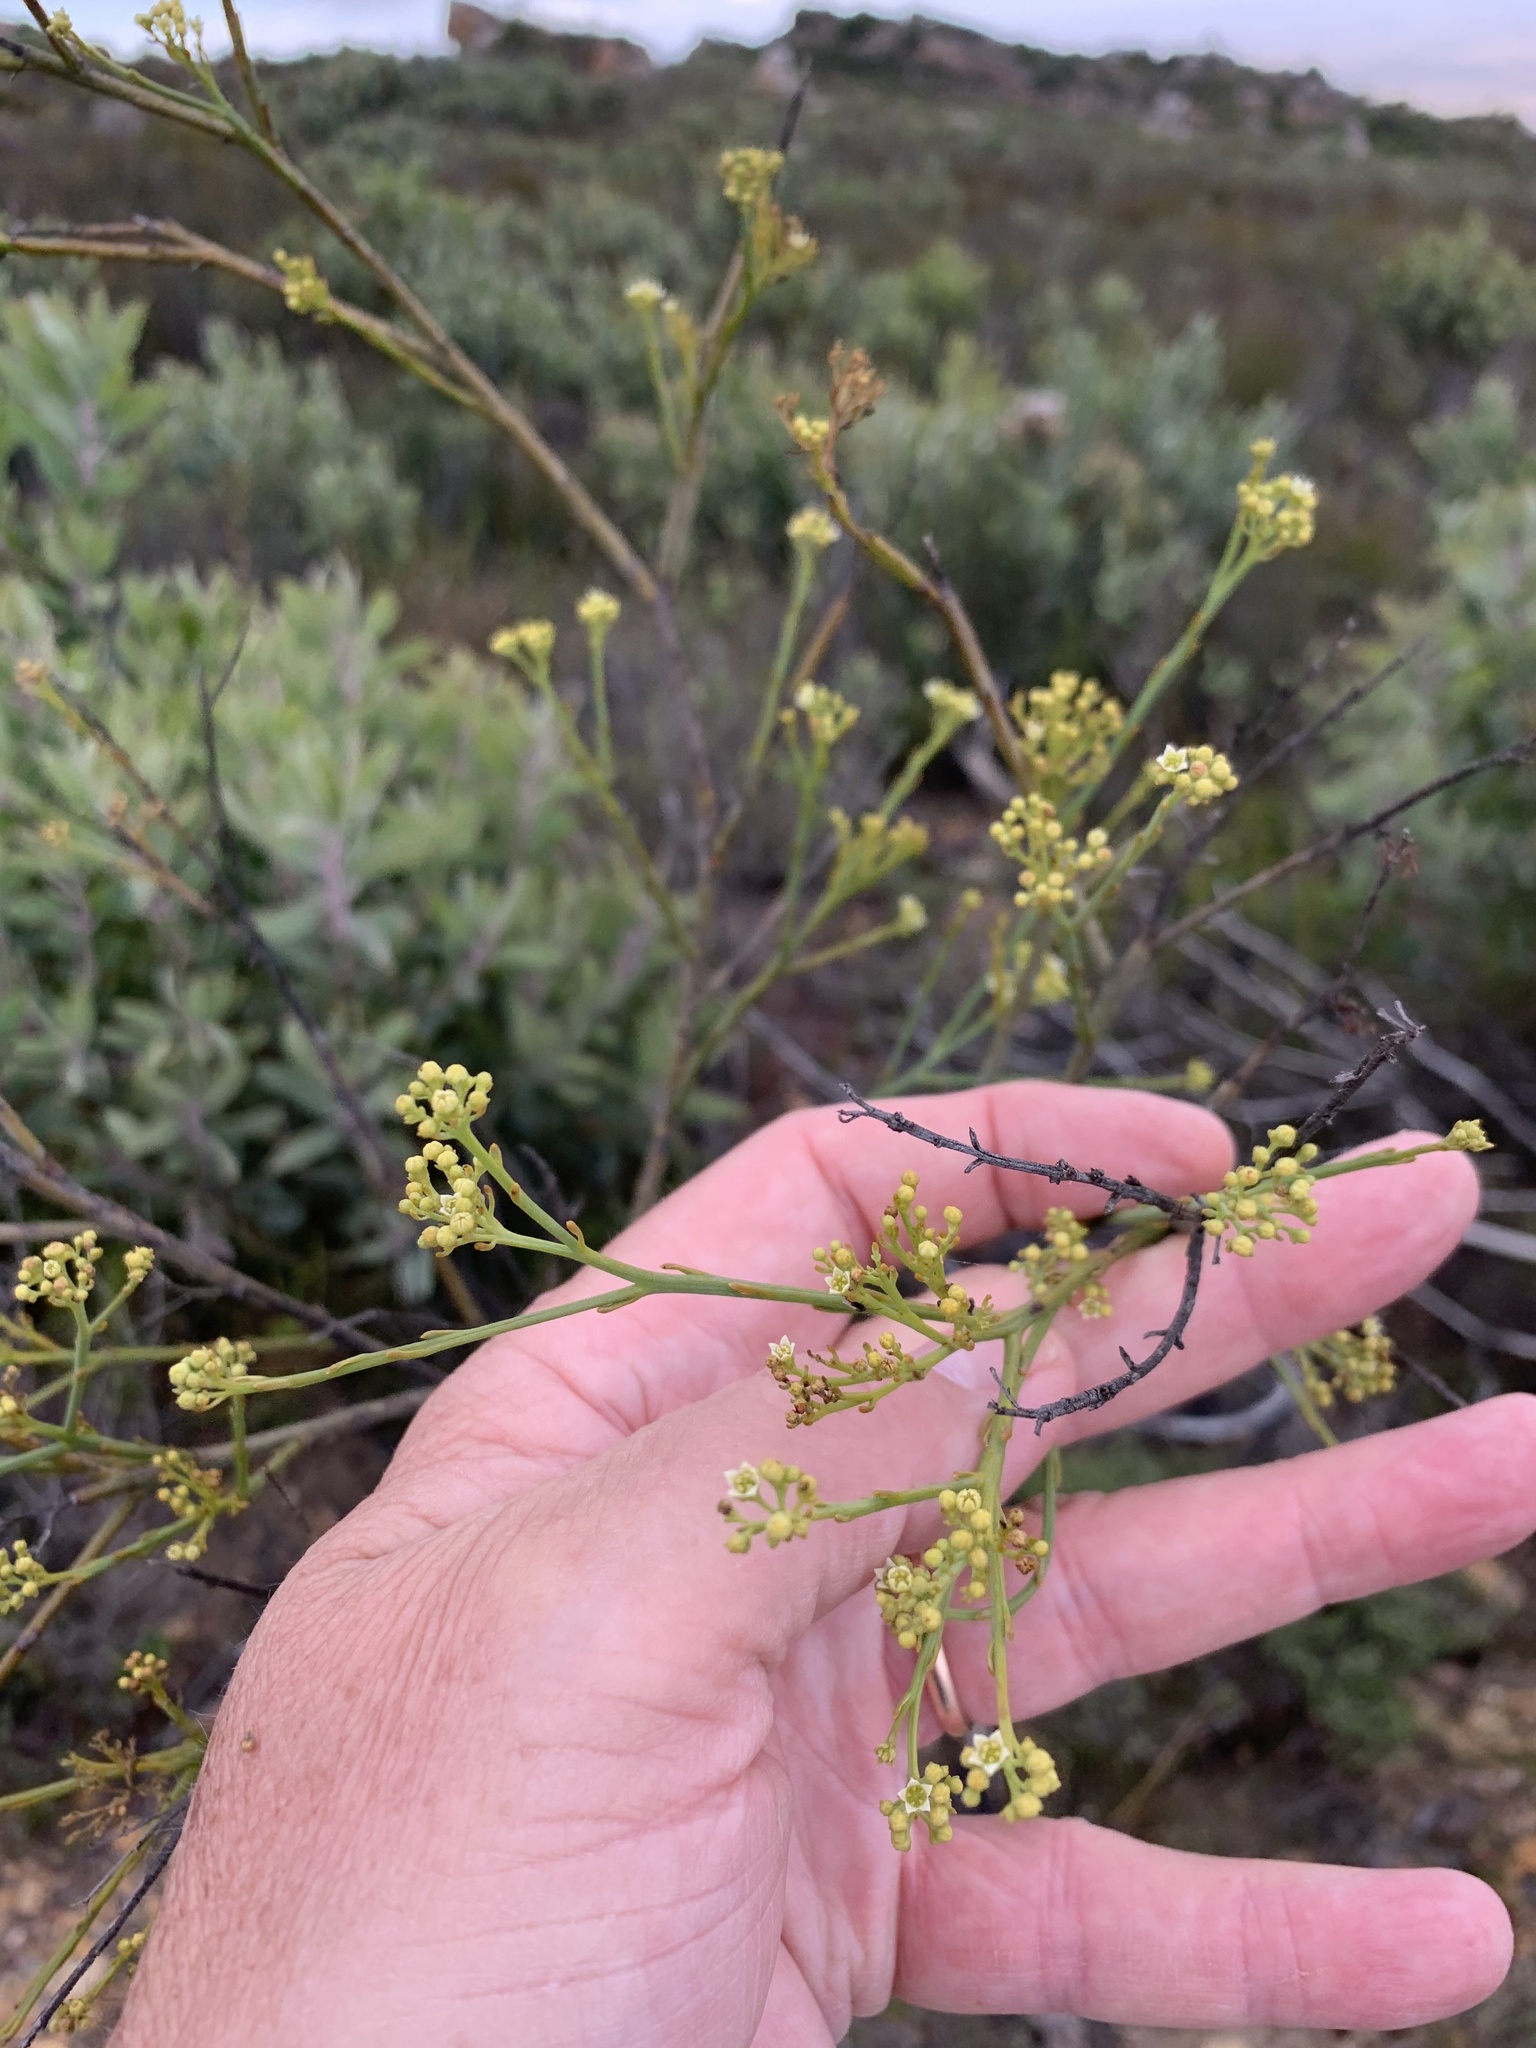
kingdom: Plantae
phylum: Tracheophyta
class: Magnoliopsida
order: Santalales
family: Thesiaceae
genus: Thesium
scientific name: Thesium strictum
